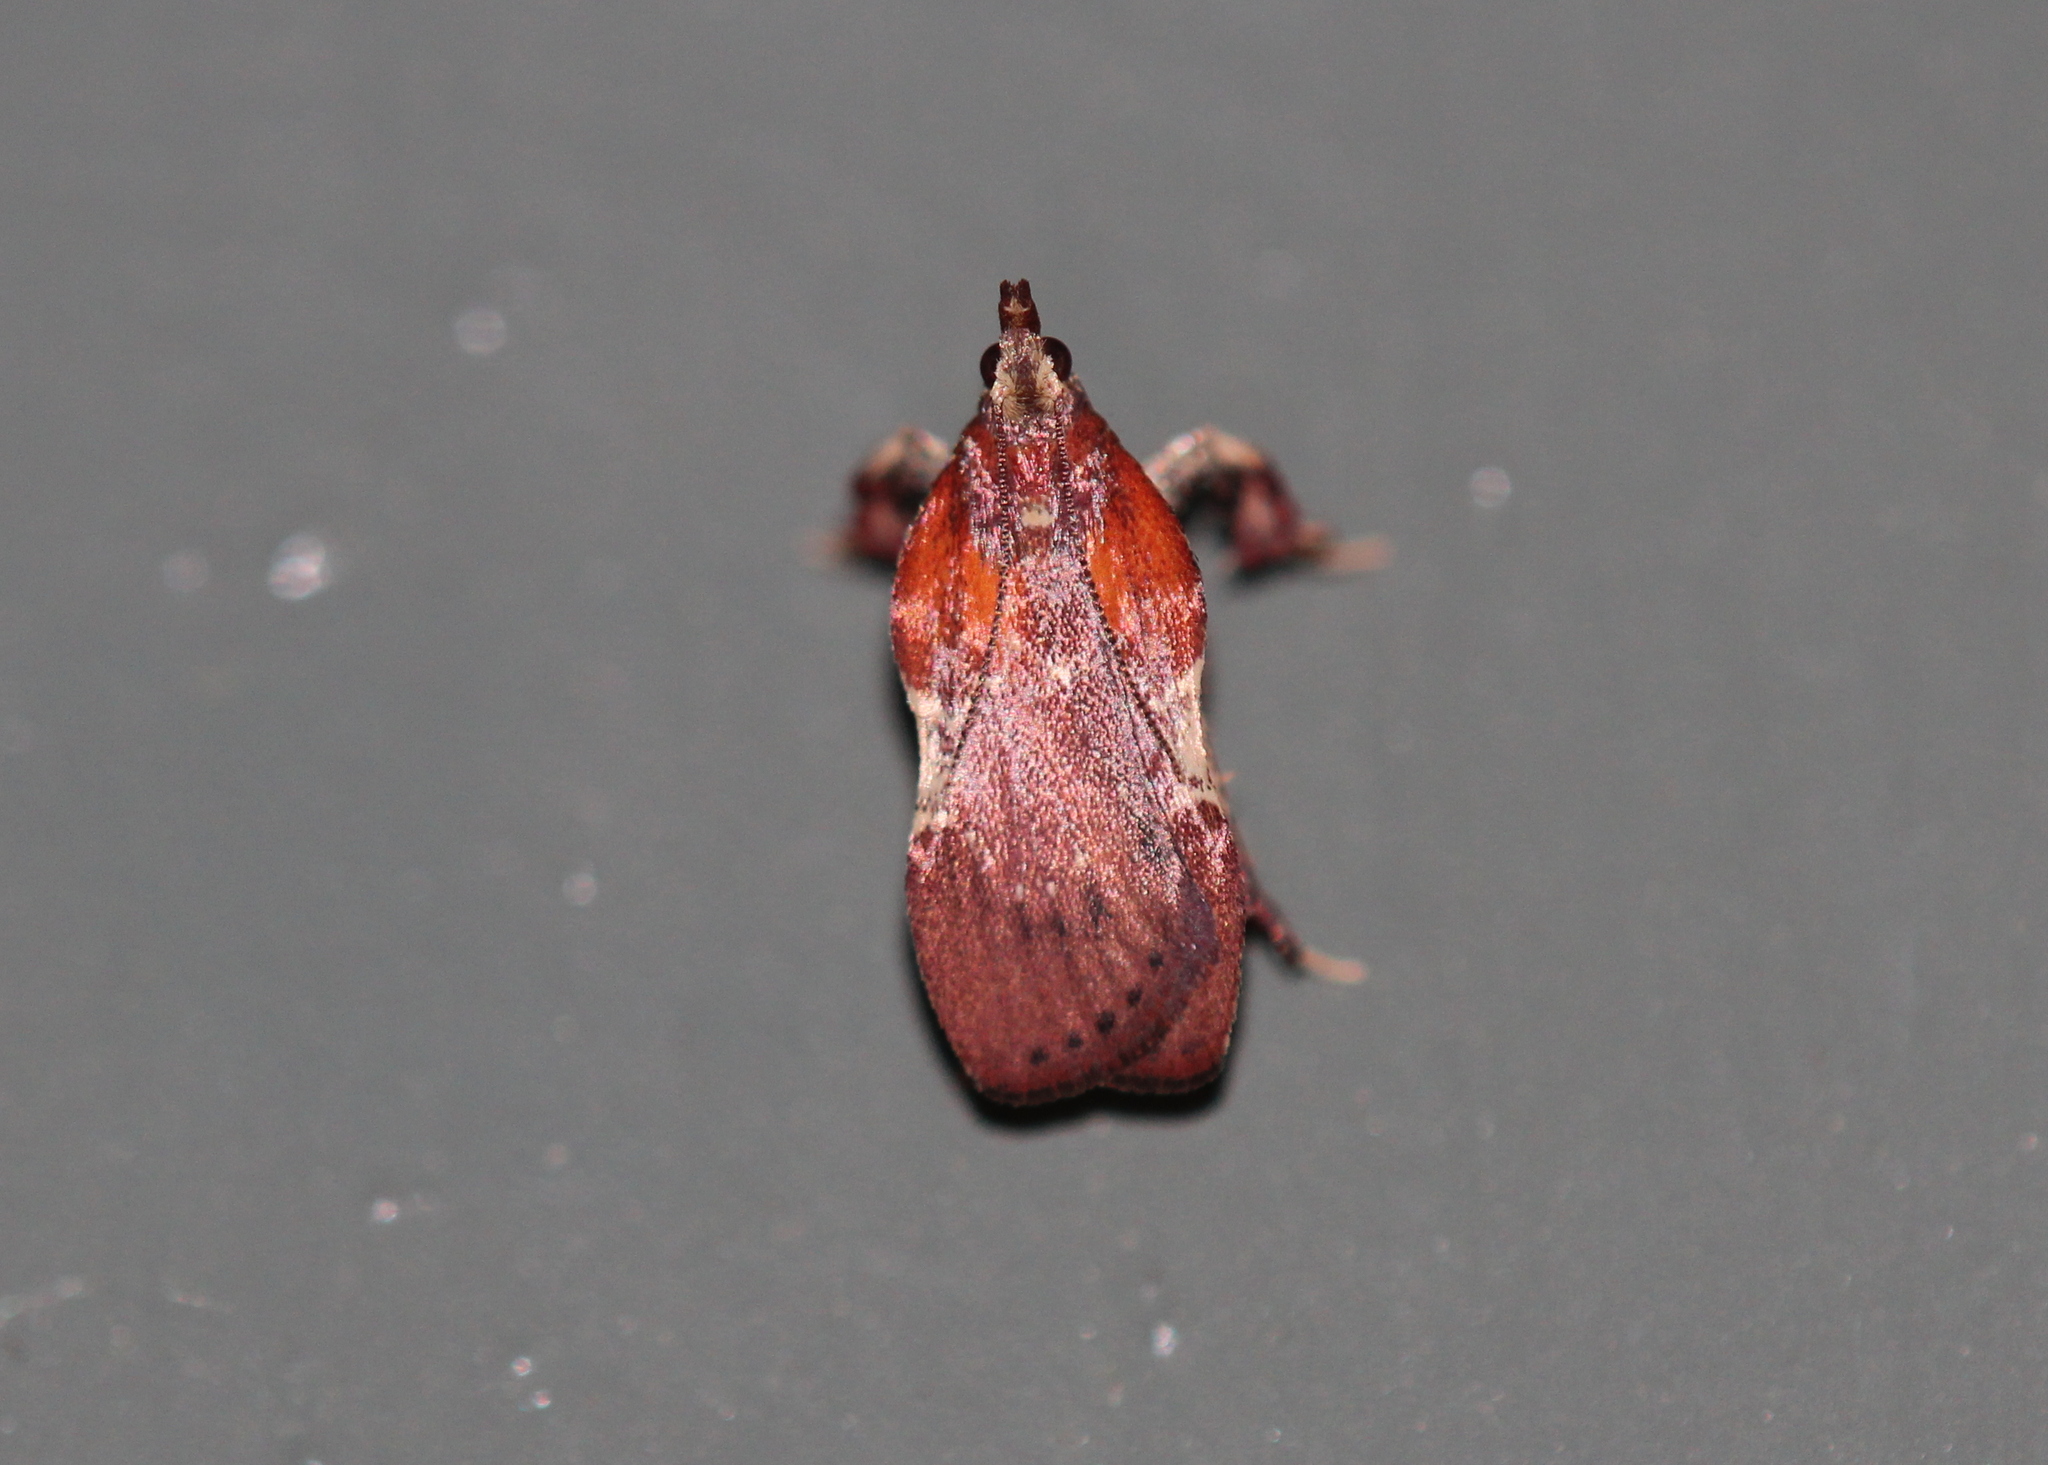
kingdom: Animalia
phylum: Arthropoda
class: Insecta
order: Lepidoptera
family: Pyralidae
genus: Galasa
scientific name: Galasa nigrinodis
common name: Boxwood leaftier moth
